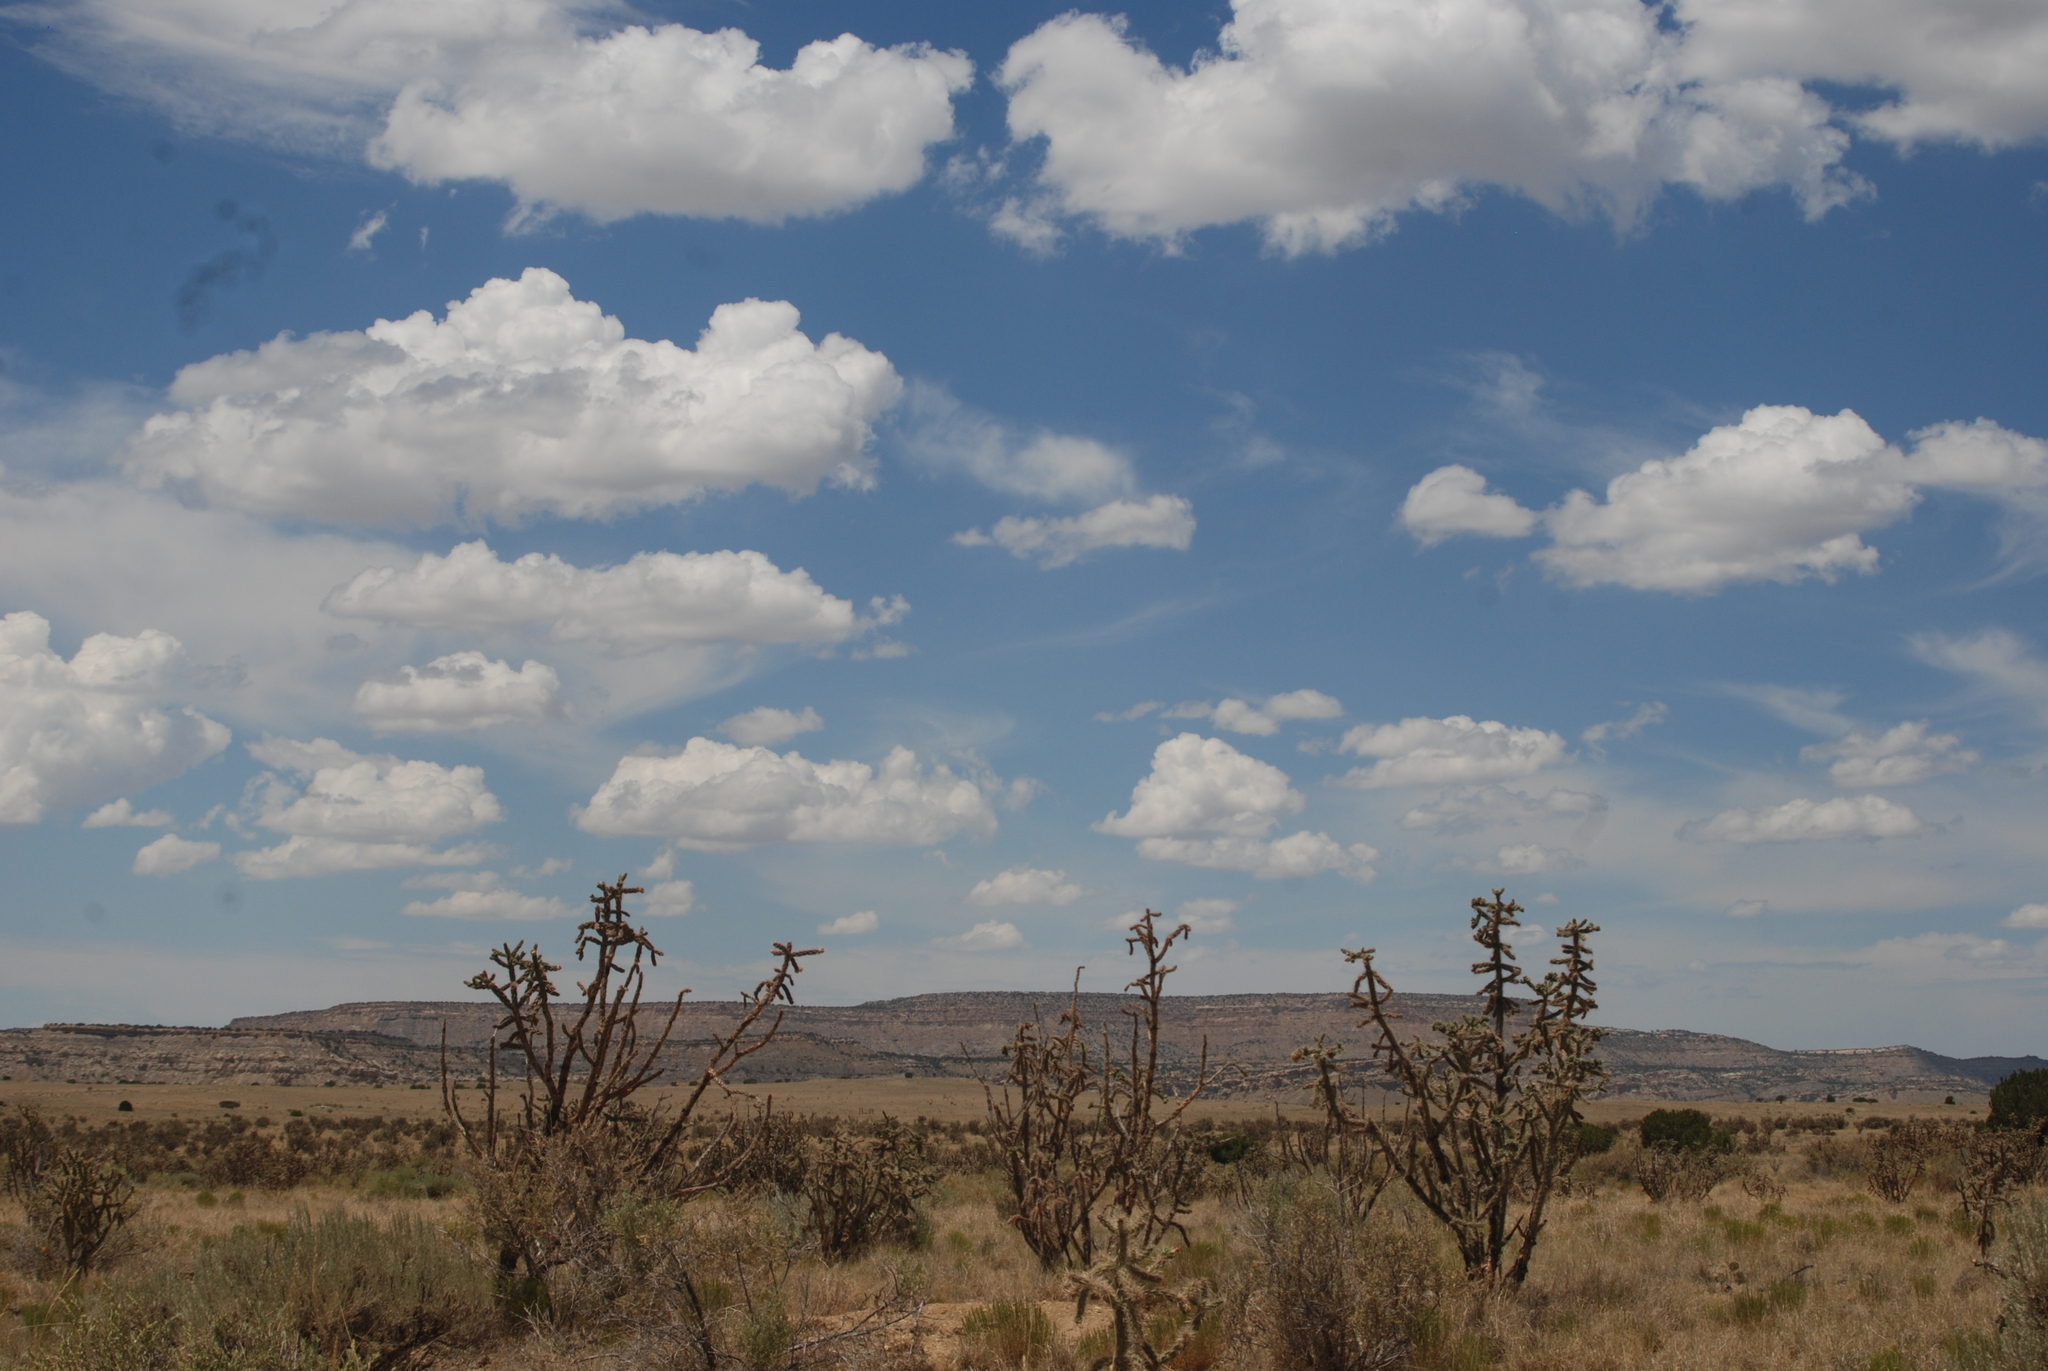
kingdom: Plantae
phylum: Tracheophyta
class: Magnoliopsida
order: Caryophyllales
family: Cactaceae
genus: Cylindropuntia
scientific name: Cylindropuntia imbricata
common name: Candelabrum cactus
